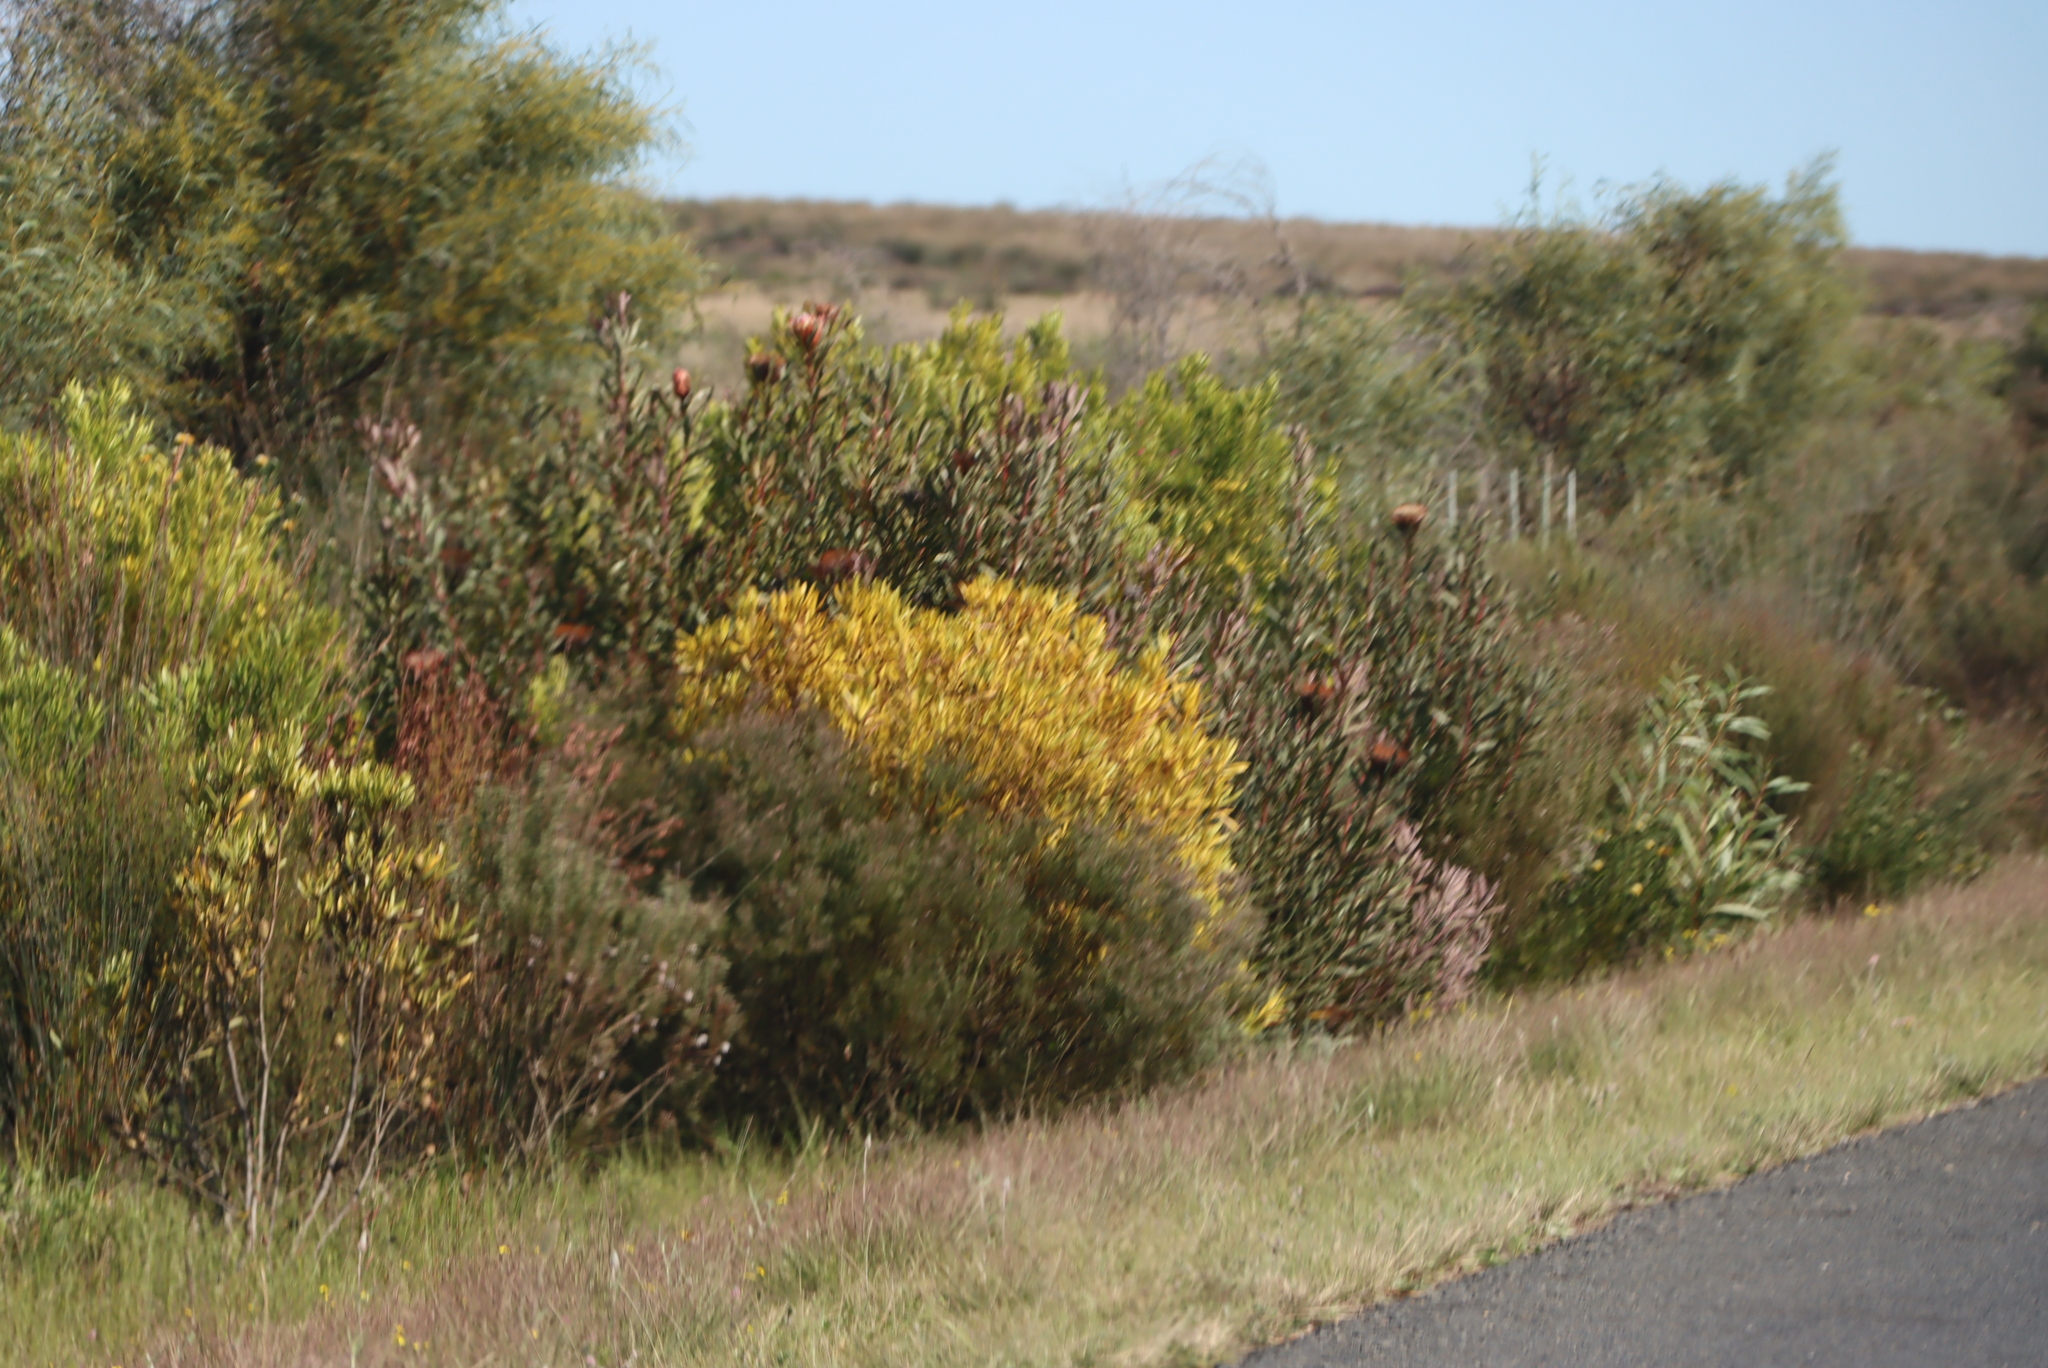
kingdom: Plantae
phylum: Tracheophyta
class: Magnoliopsida
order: Proteales
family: Proteaceae
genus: Leucadendron
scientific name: Leucadendron galpinii
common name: Hairless conebush
